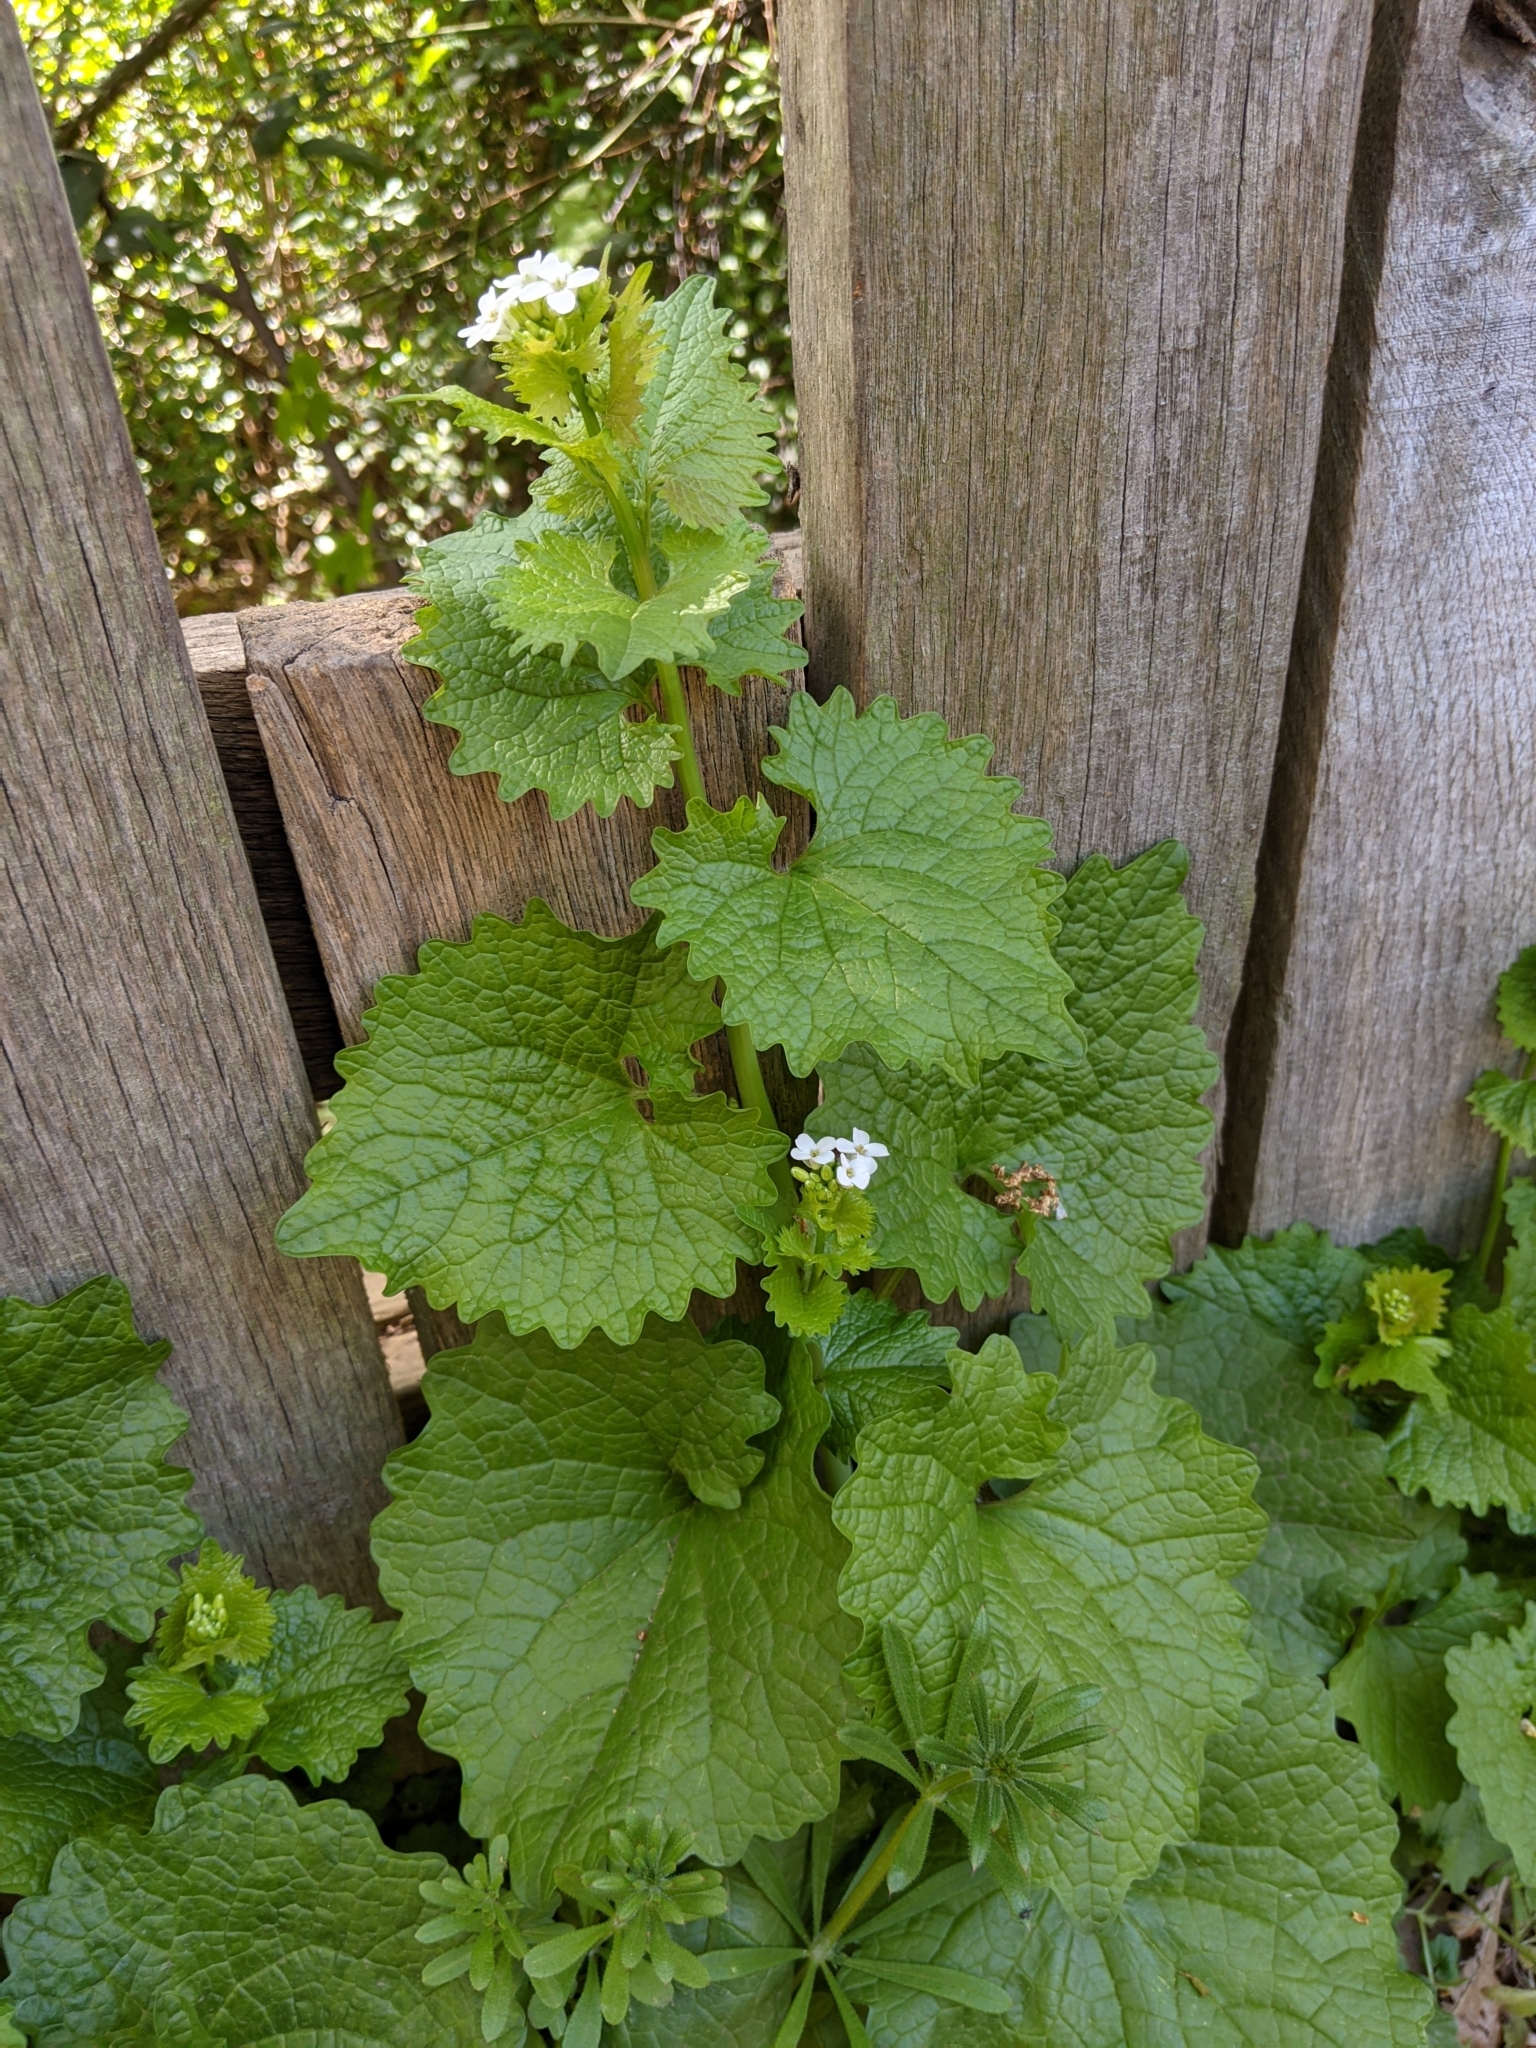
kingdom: Plantae
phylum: Tracheophyta
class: Magnoliopsida
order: Brassicales
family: Brassicaceae
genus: Alliaria
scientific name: Alliaria petiolata
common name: Garlic mustard
